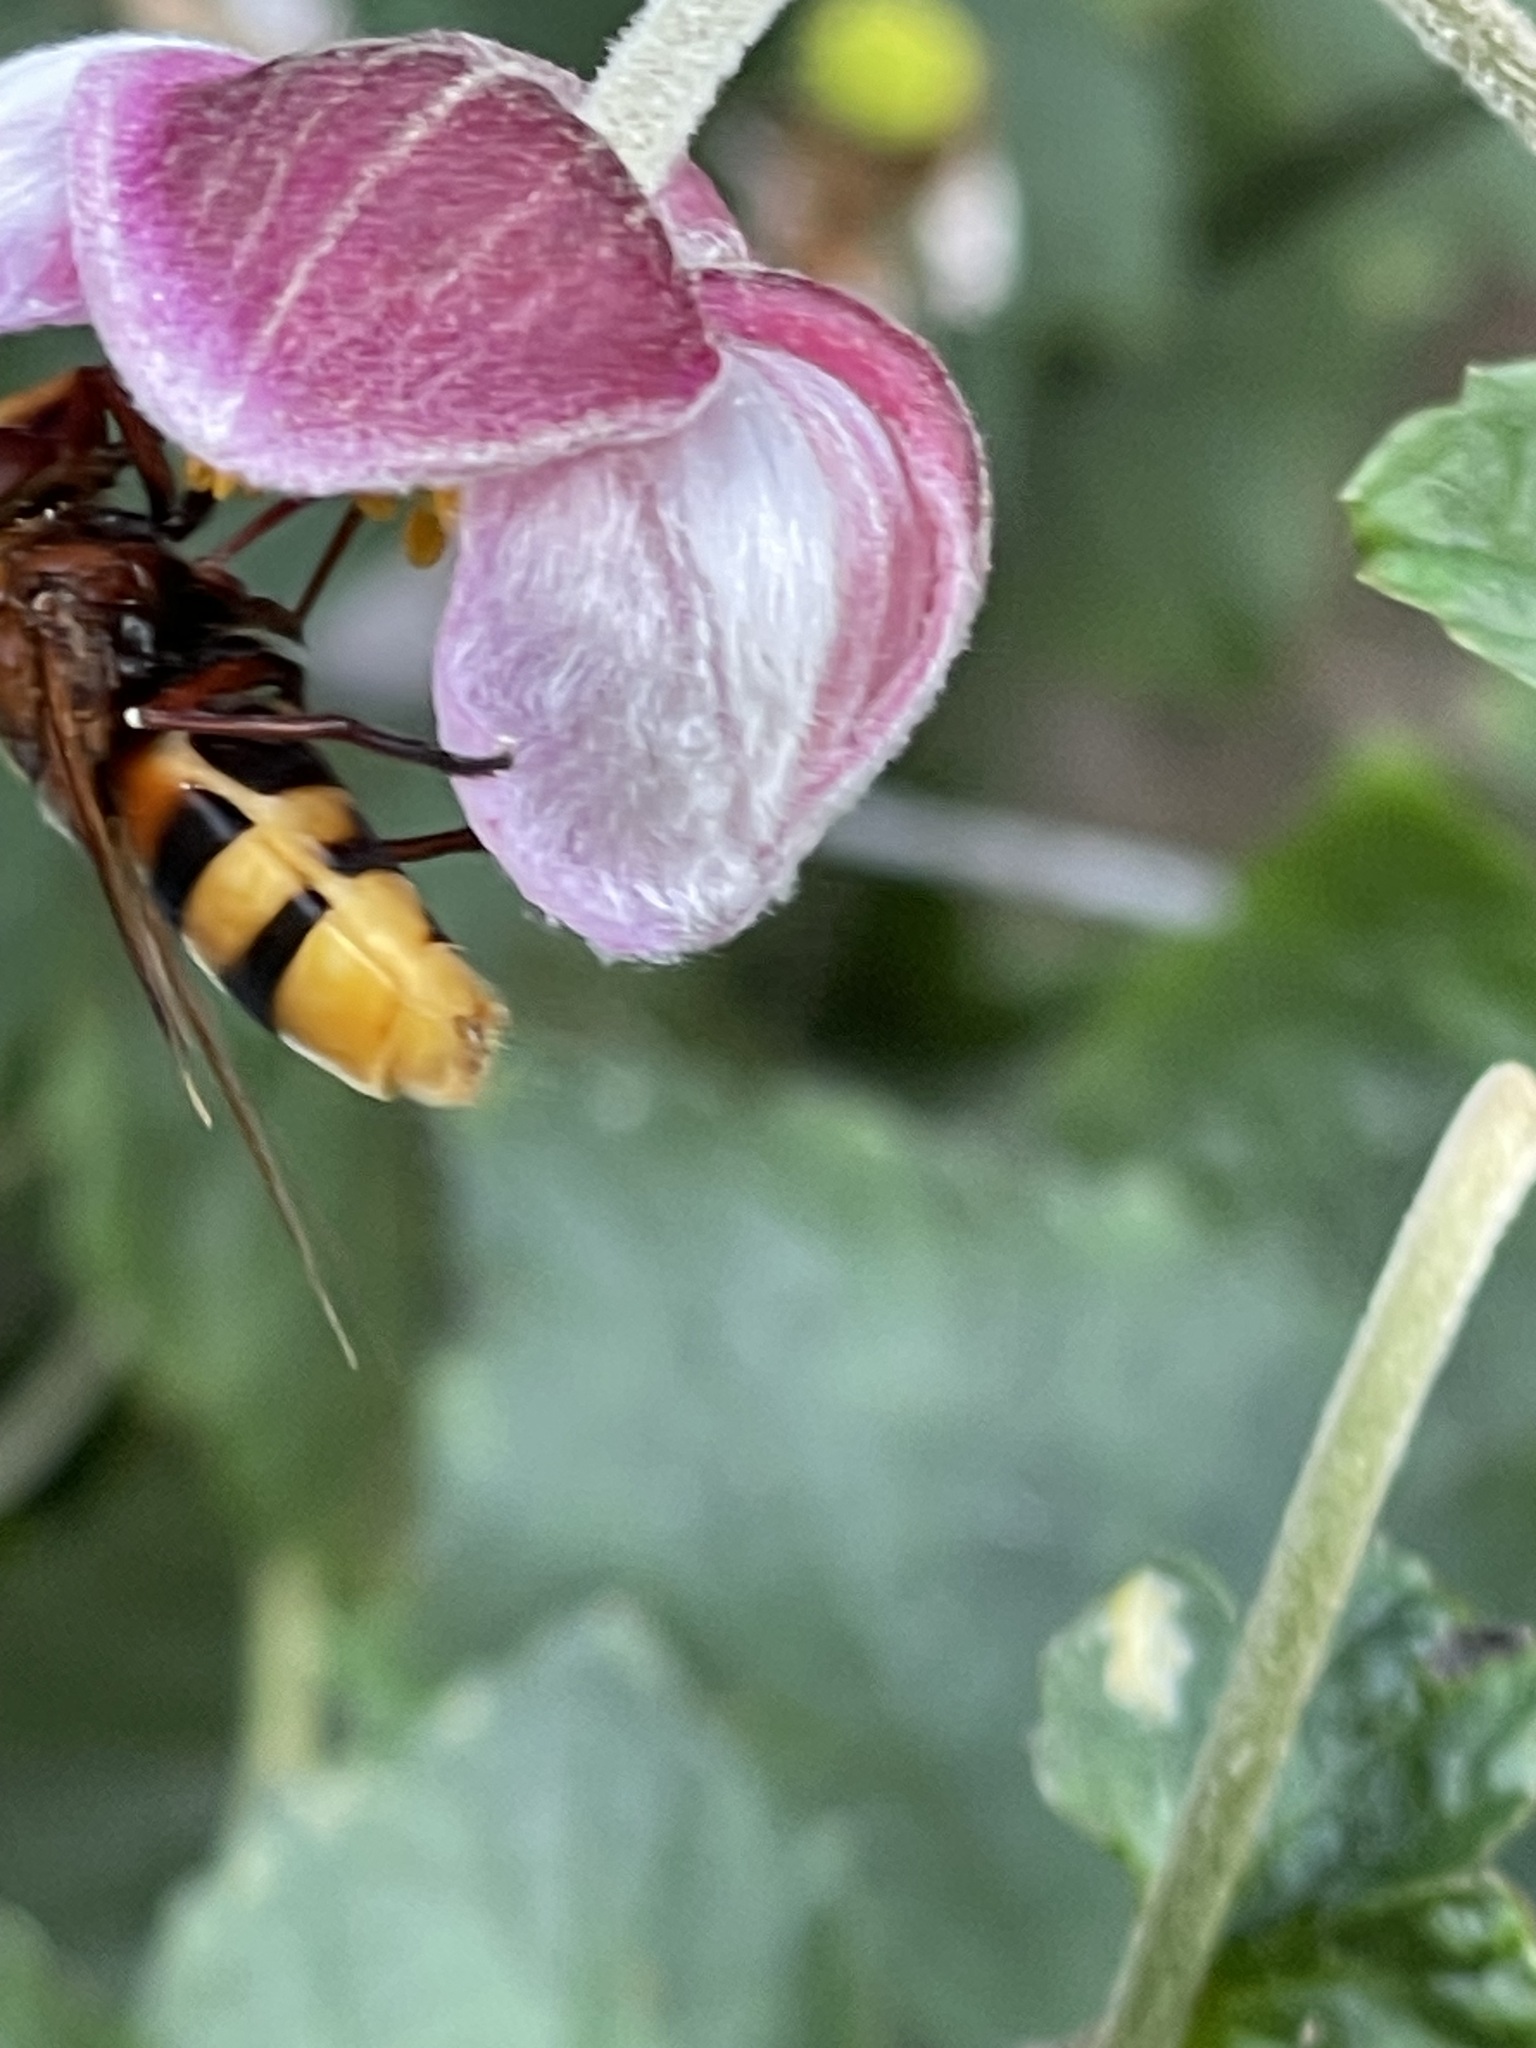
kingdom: Animalia
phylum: Arthropoda
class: Insecta
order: Diptera
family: Syrphidae
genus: Volucella
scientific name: Volucella zonaria
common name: Hornet hoverfly
